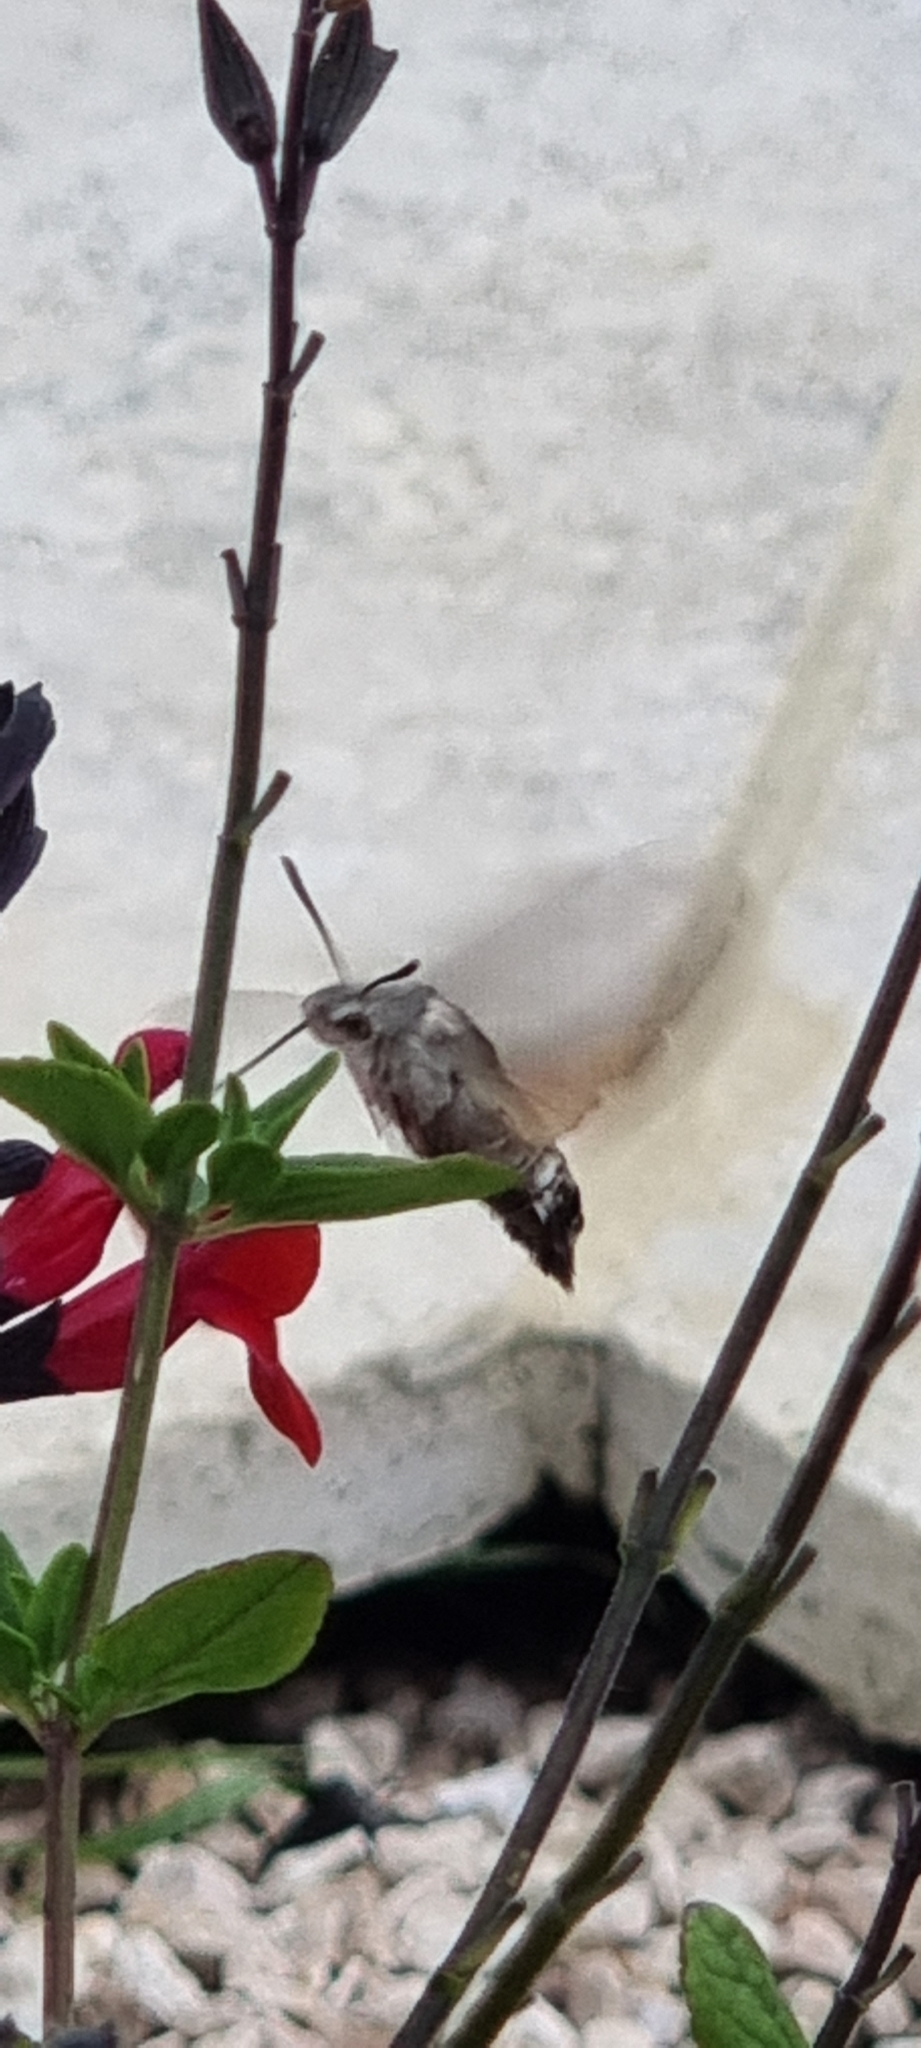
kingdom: Animalia
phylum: Arthropoda
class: Insecta
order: Lepidoptera
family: Sphingidae
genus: Macroglossum
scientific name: Macroglossum stellatarum
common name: Humming-bird hawk-moth
